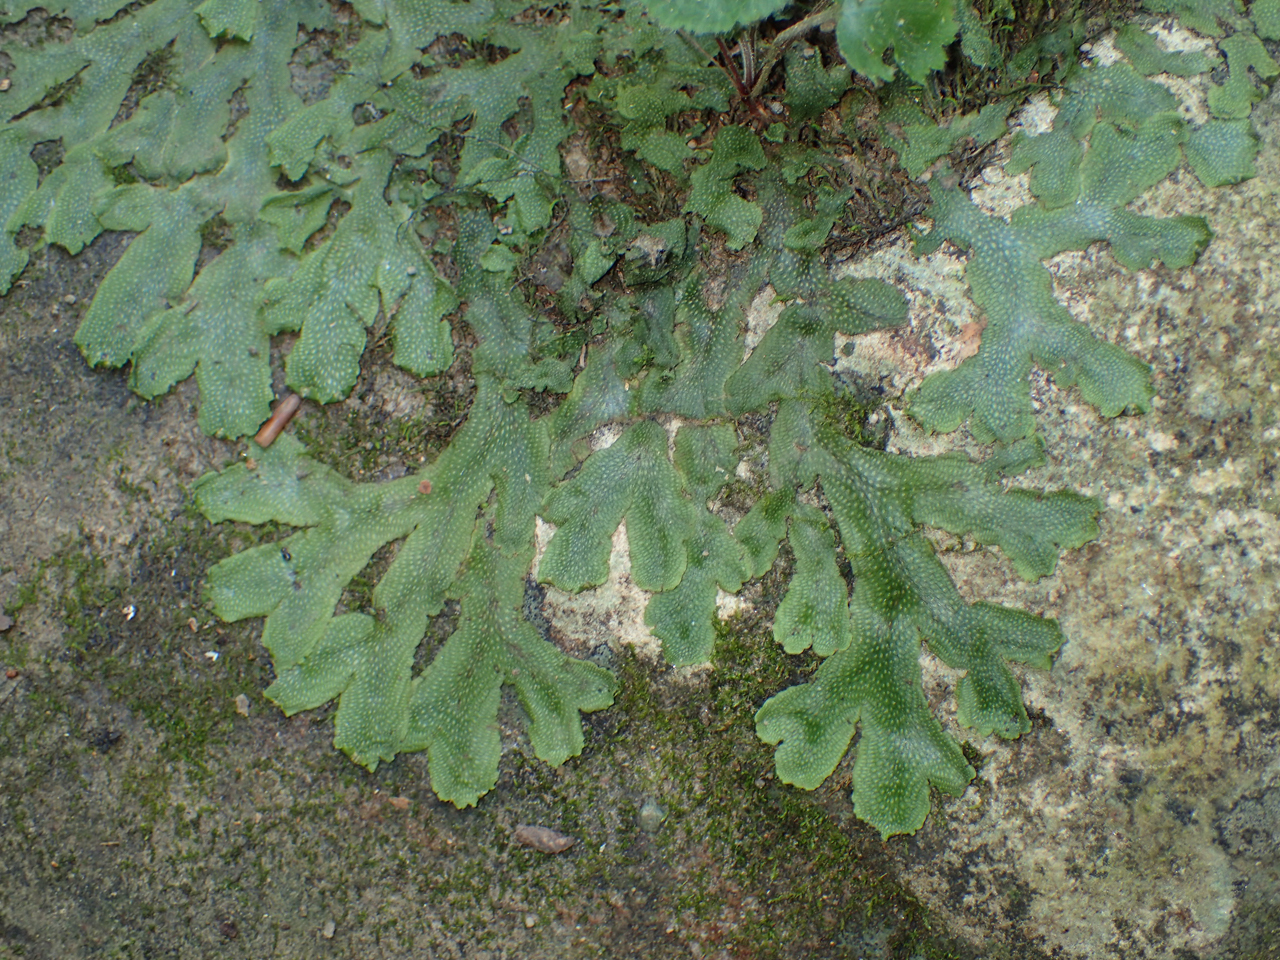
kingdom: Plantae
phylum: Marchantiophyta
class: Marchantiopsida
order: Marchantiales
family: Conocephalaceae
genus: Conocephalum
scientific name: Conocephalum salebrosum
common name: Cat-tongue liverwort
